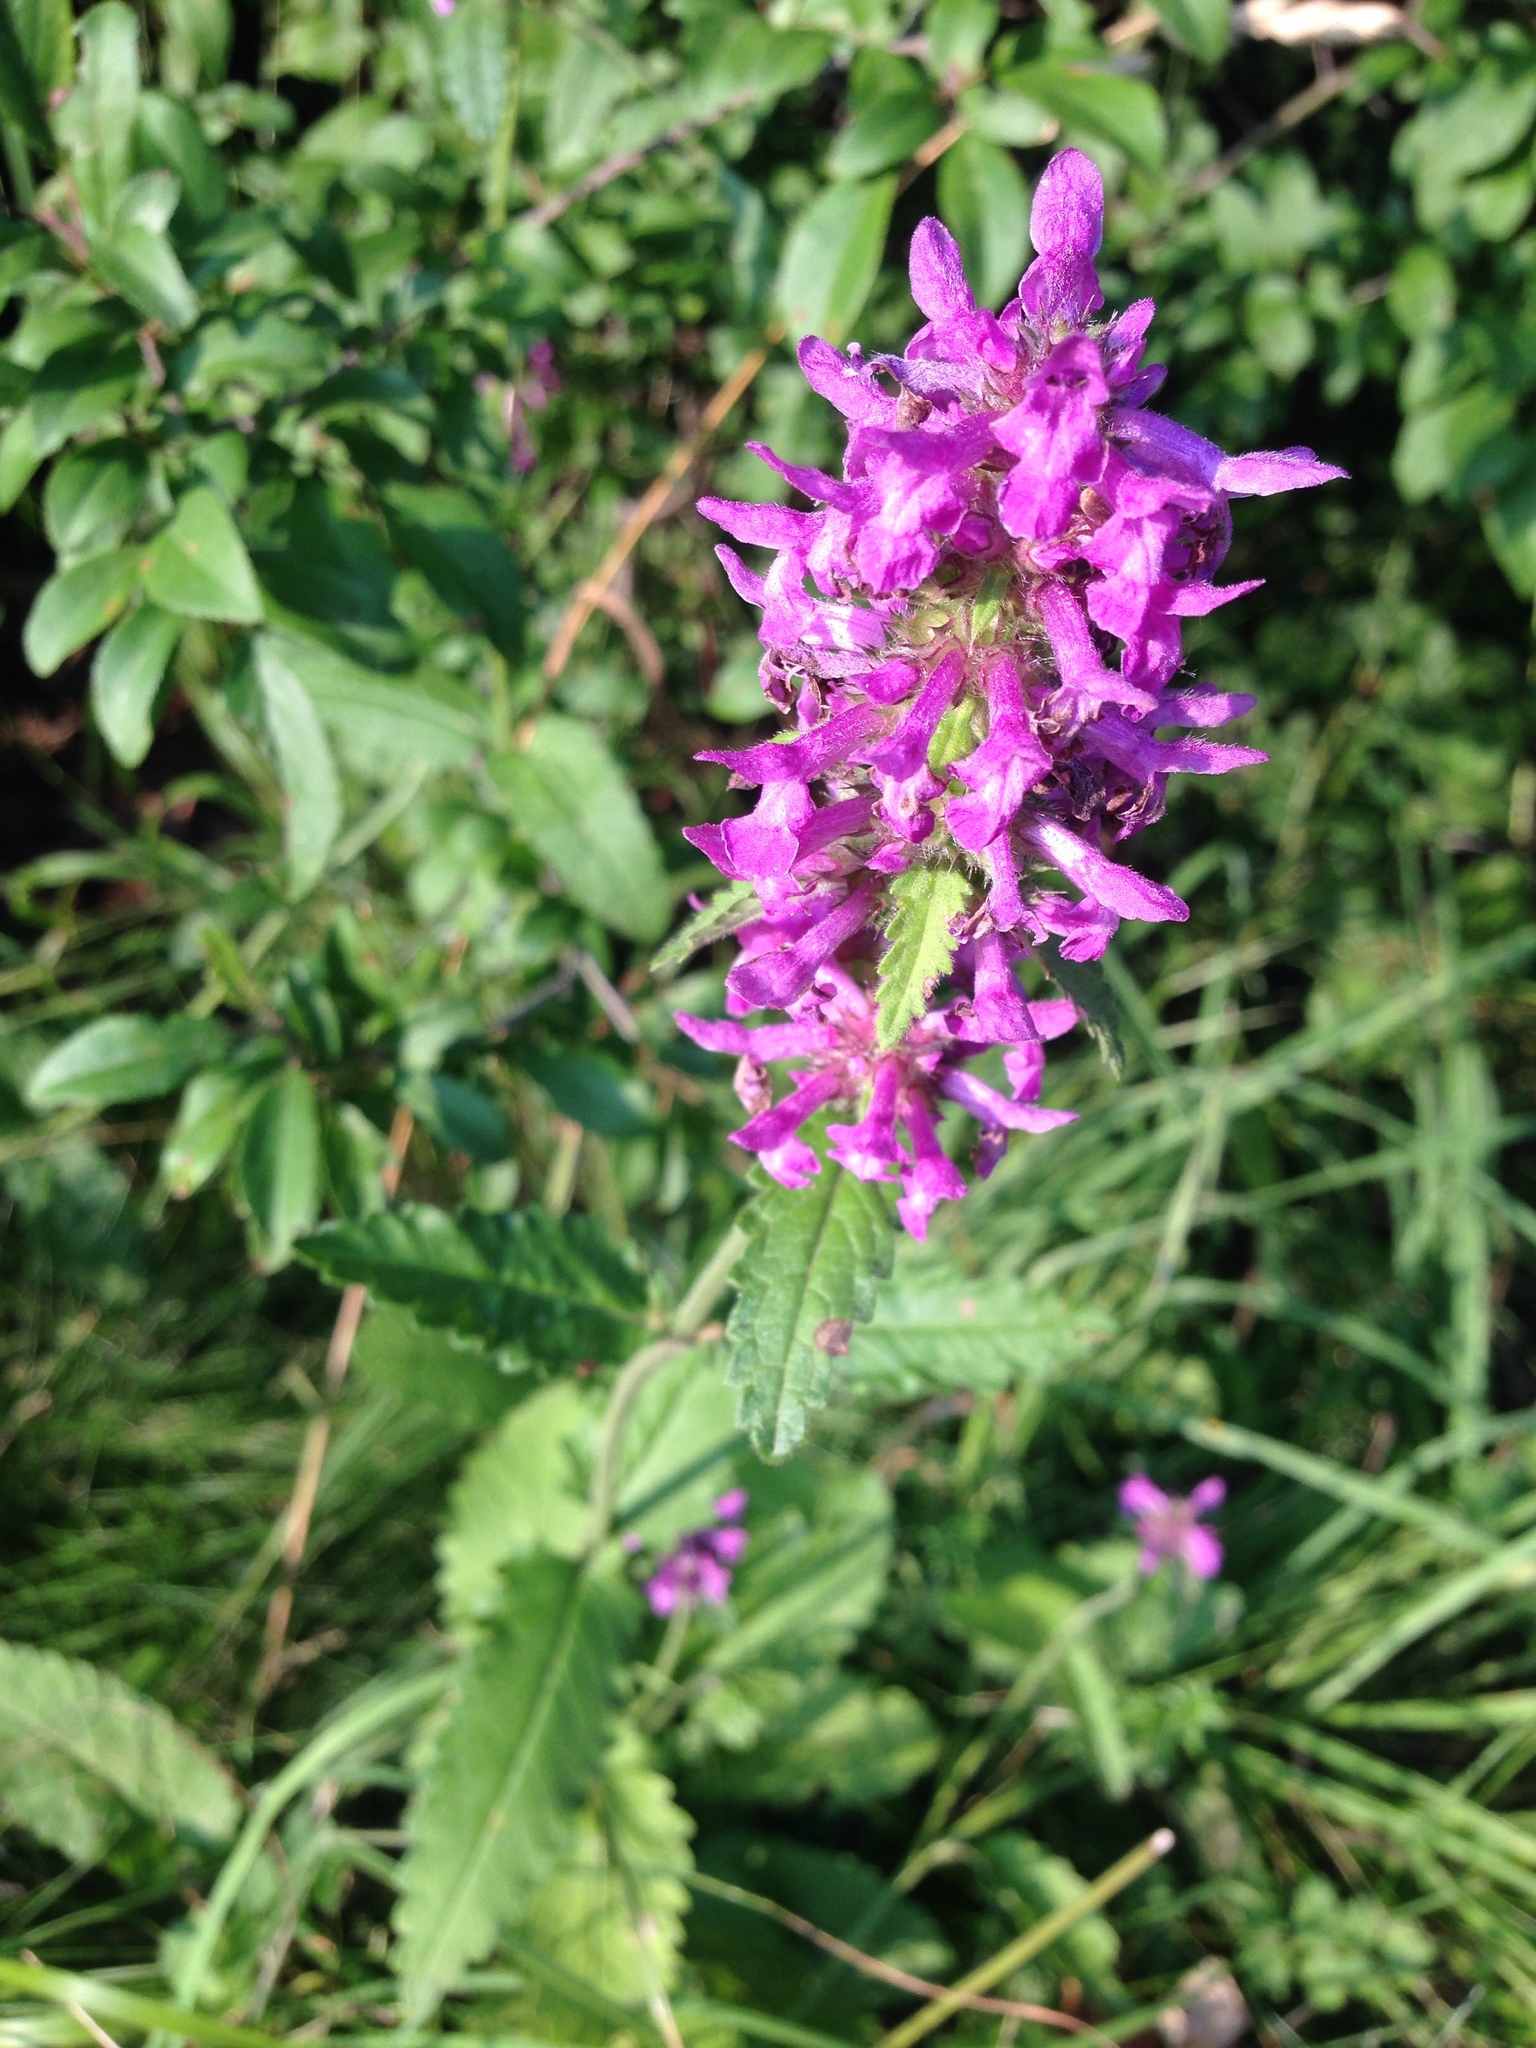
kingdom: Plantae
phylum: Tracheophyta
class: Magnoliopsida
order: Lamiales
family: Lamiaceae
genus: Betonica
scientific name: Betonica officinalis
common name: Bishop's-wort
